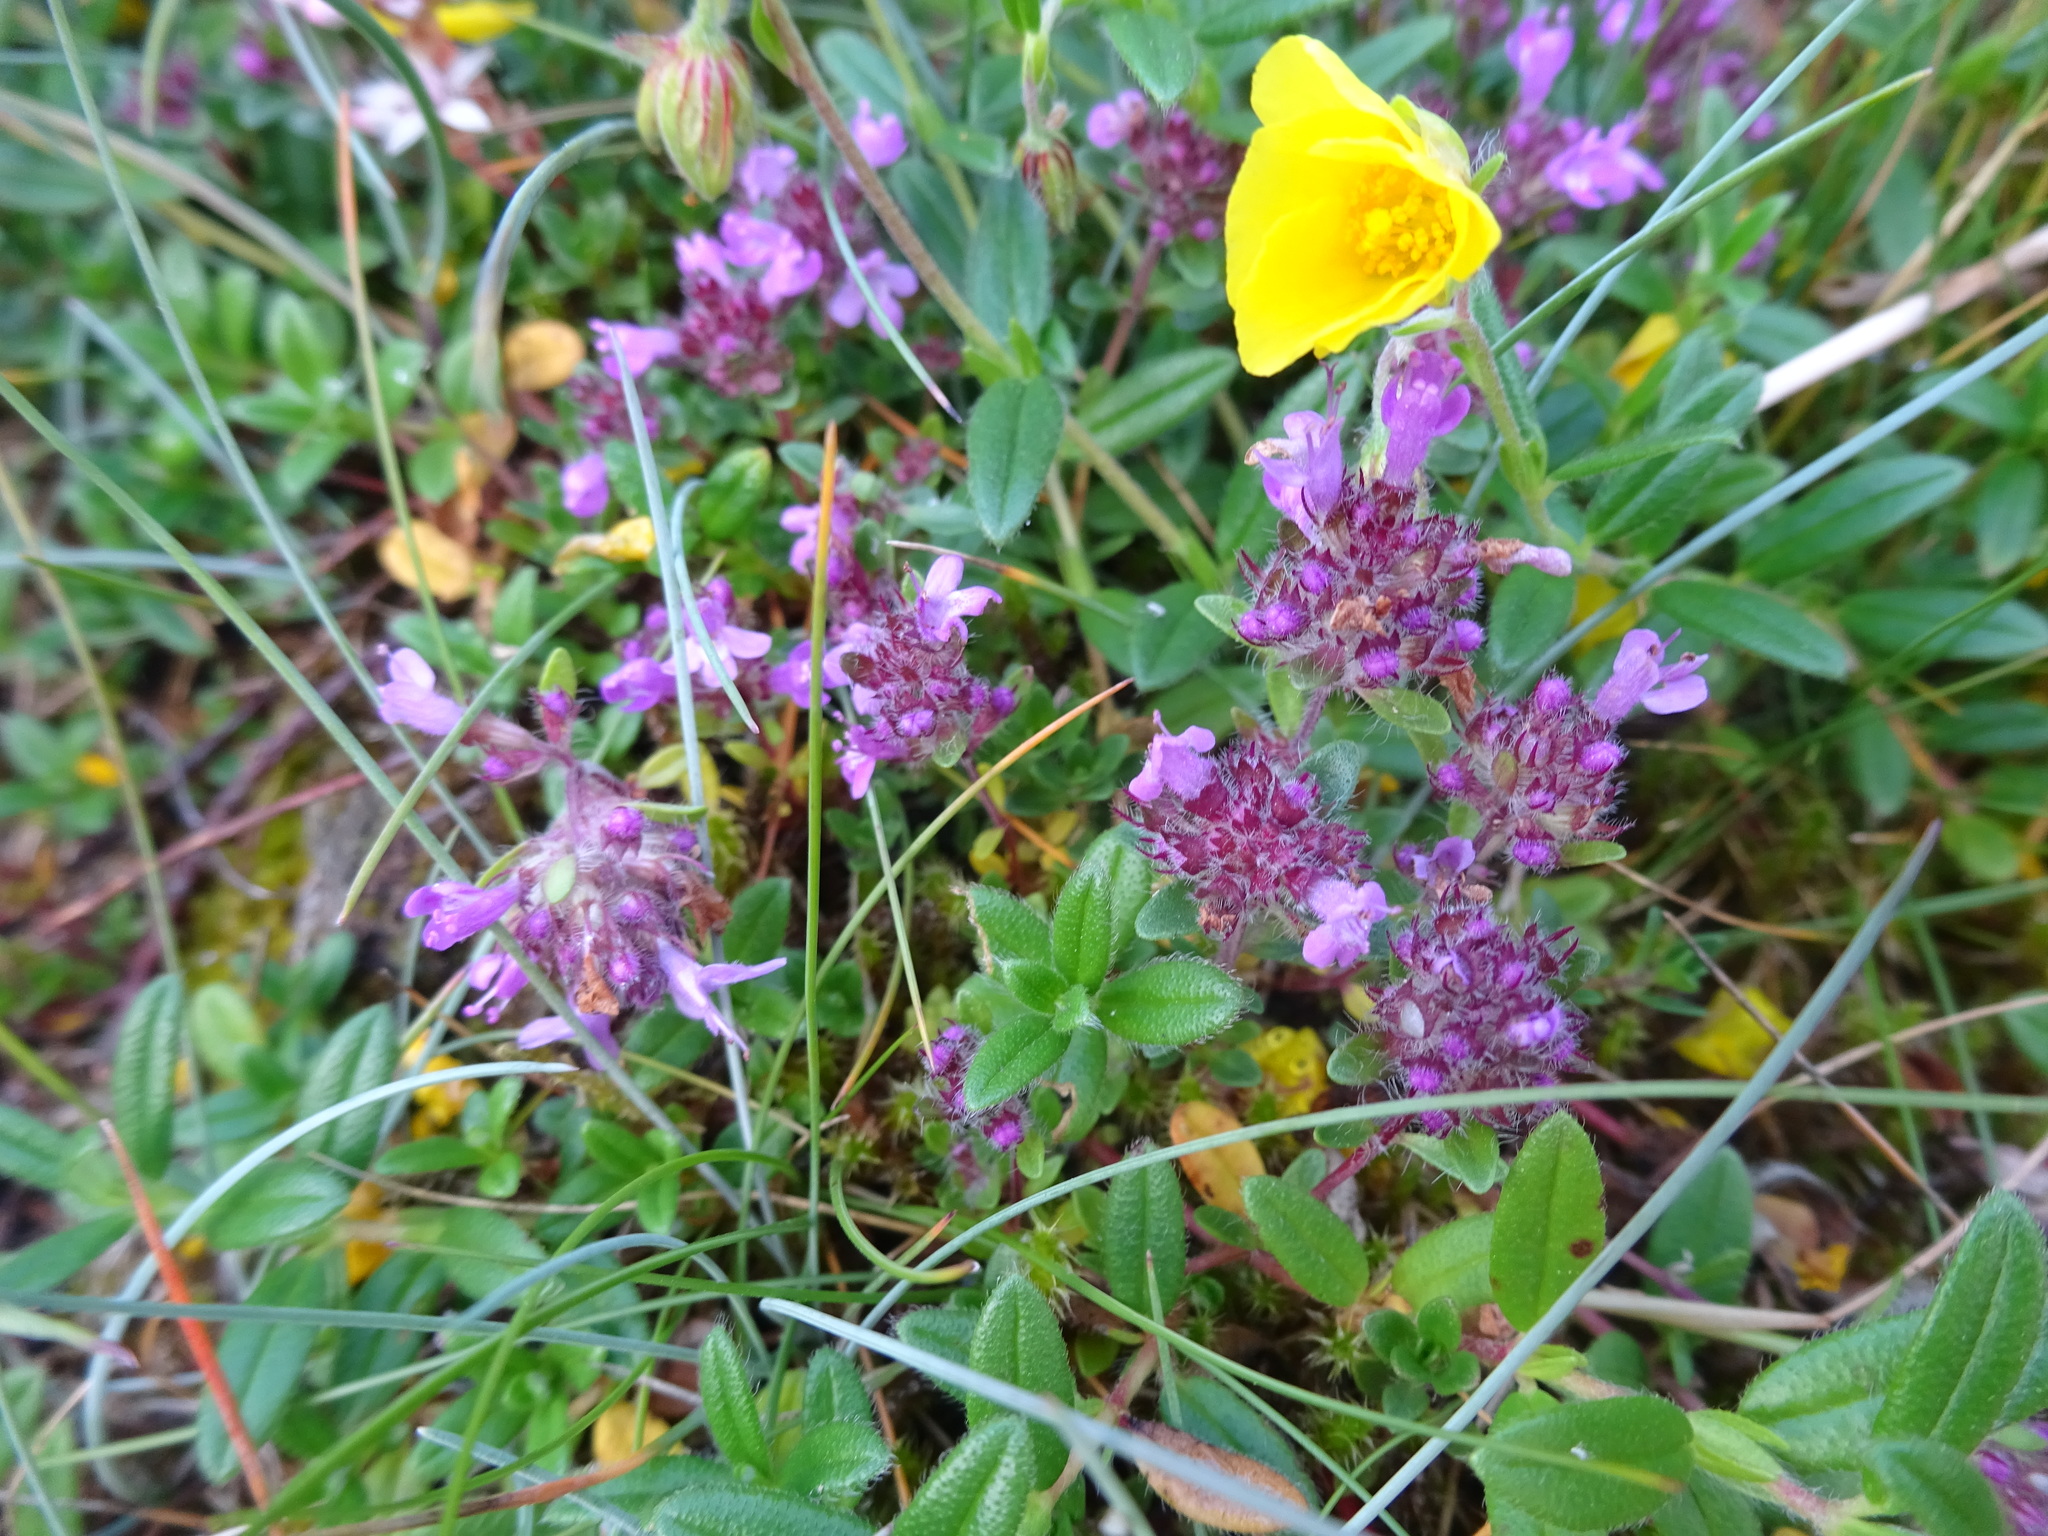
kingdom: Plantae
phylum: Tracheophyta
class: Magnoliopsida
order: Lamiales
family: Lamiaceae
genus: Thymus
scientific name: Thymus praecox
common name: Wild thyme
